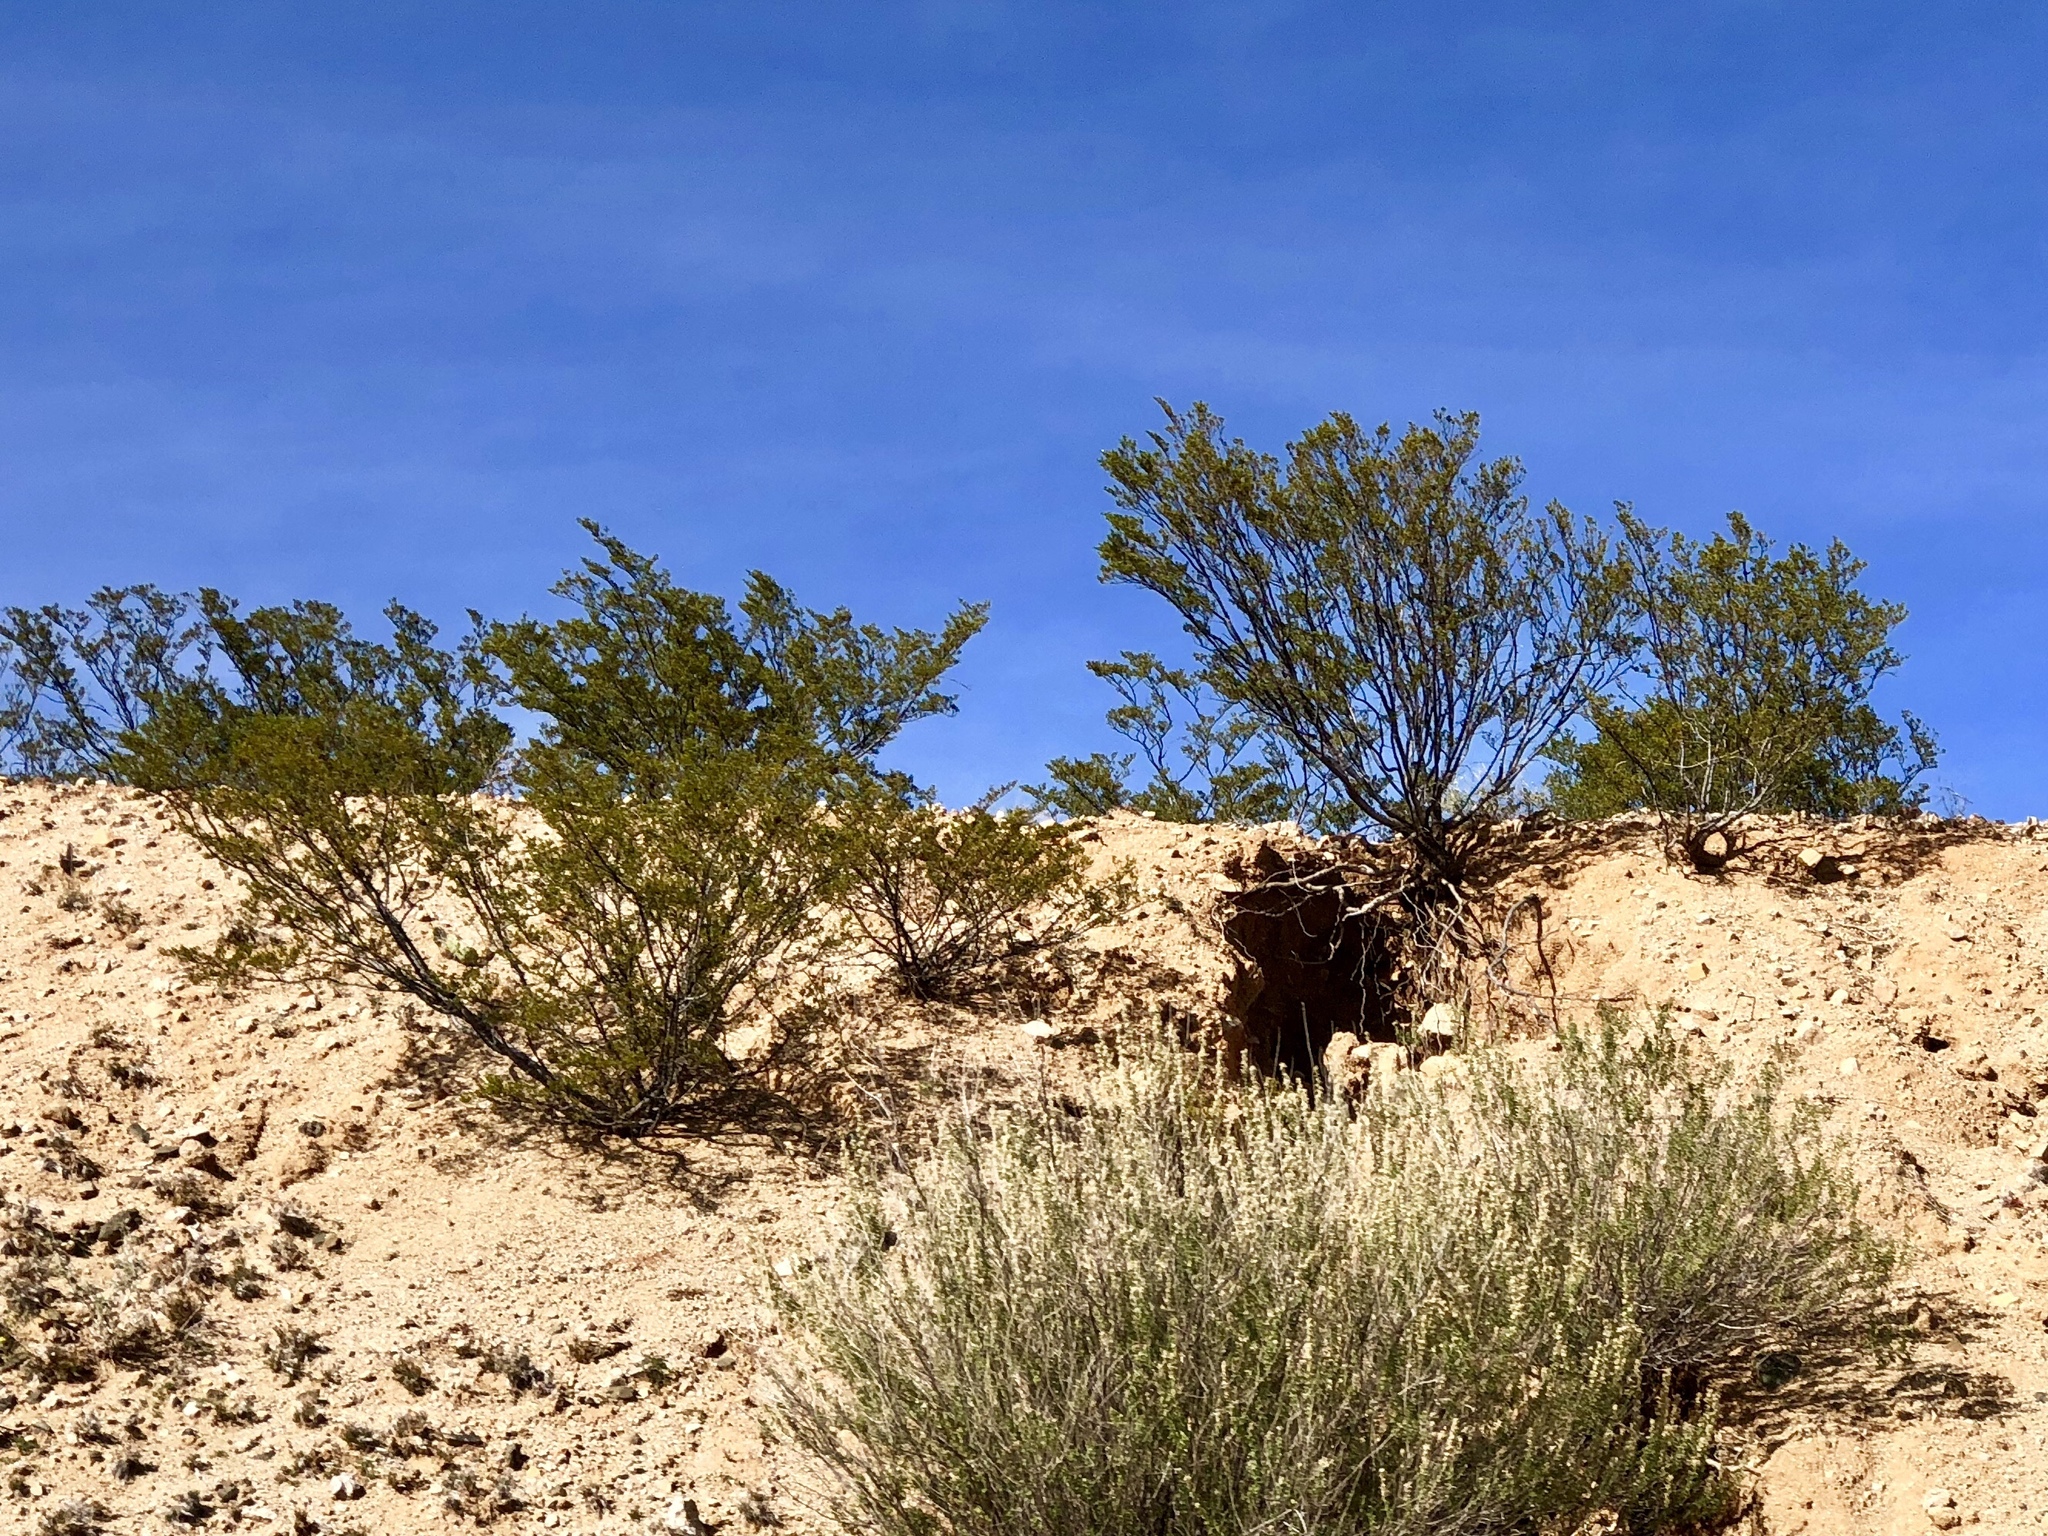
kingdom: Plantae
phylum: Tracheophyta
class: Magnoliopsida
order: Zygophyllales
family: Zygophyllaceae
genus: Larrea
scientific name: Larrea tridentata
